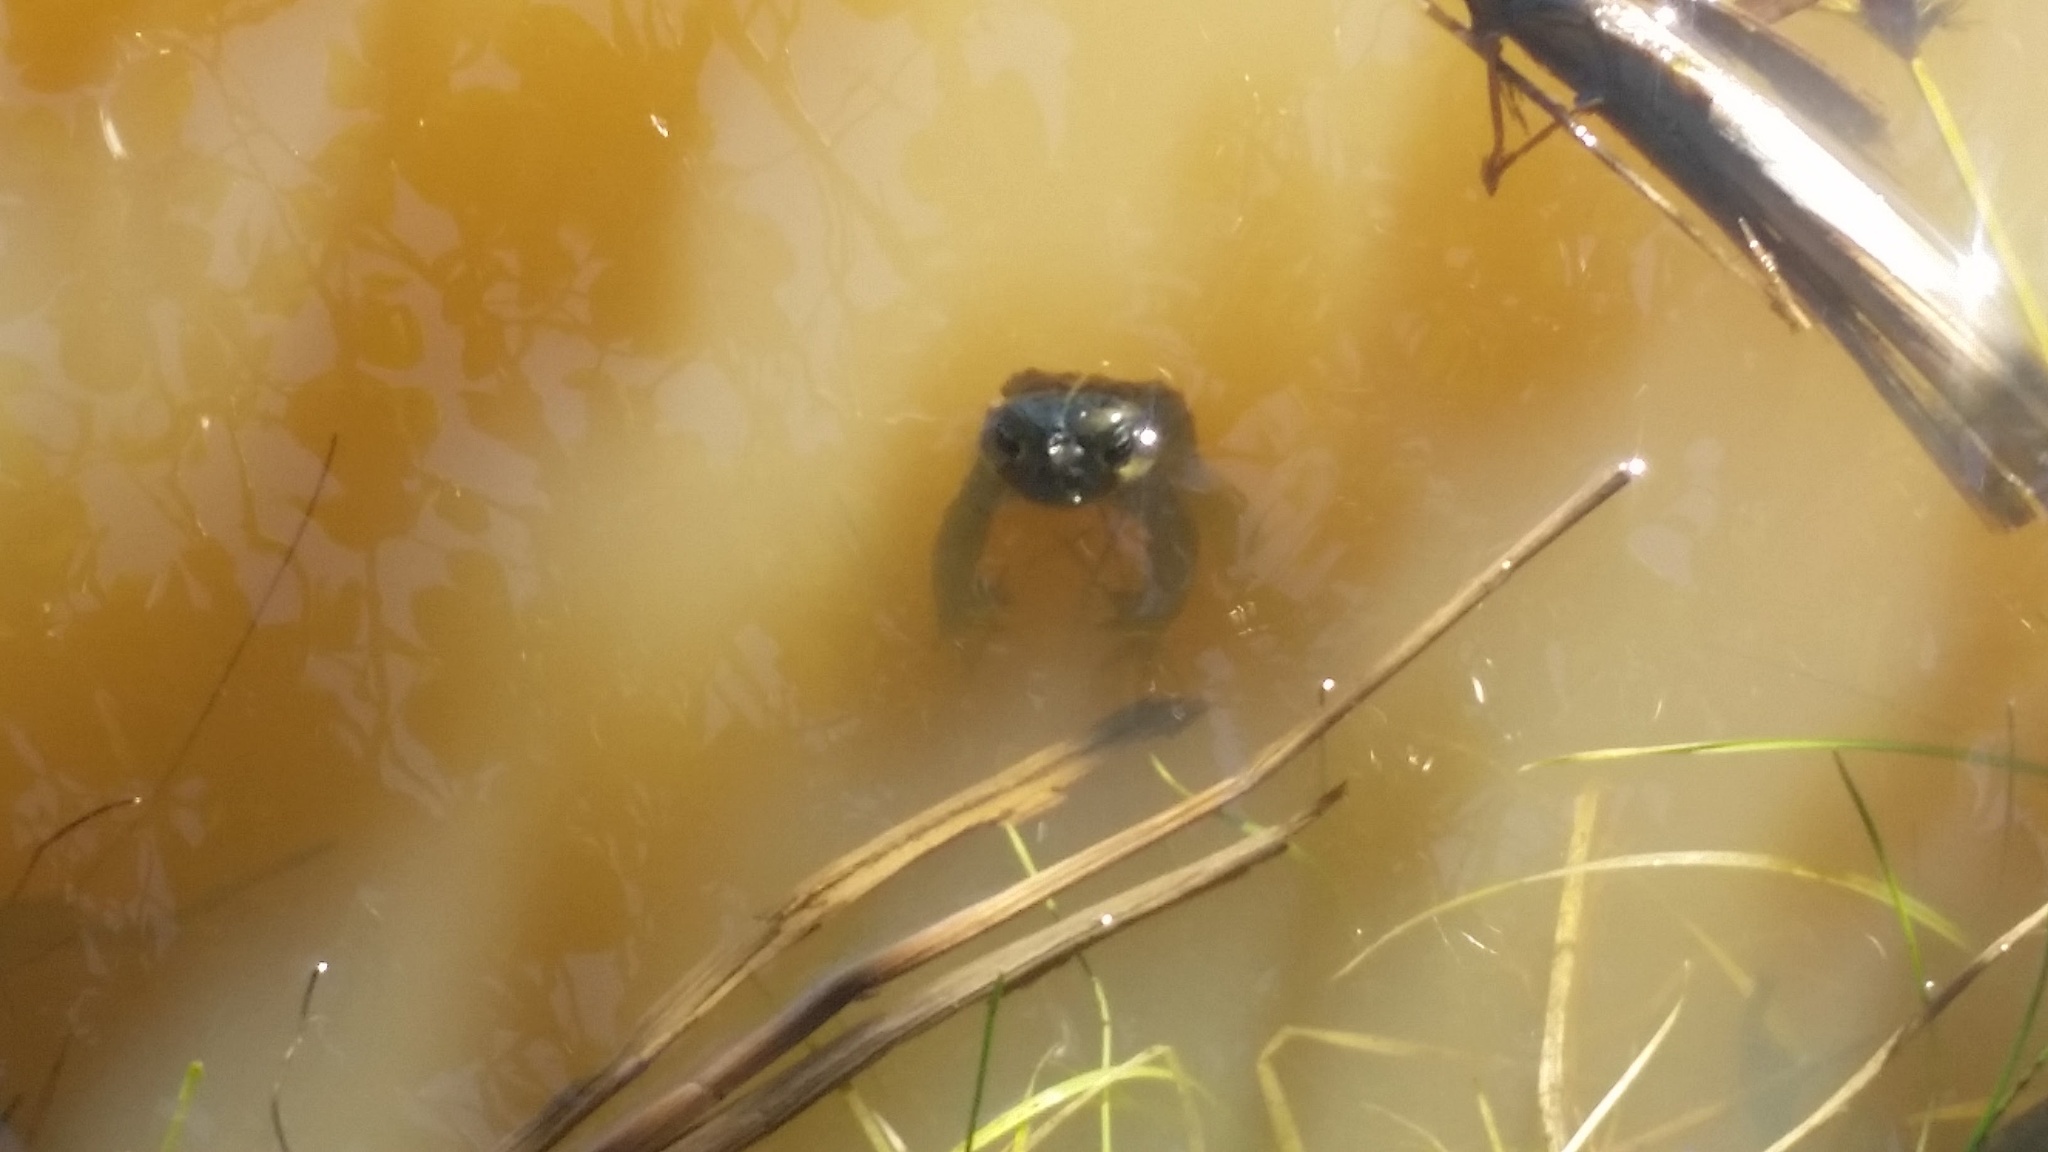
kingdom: Animalia
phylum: Chordata
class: Amphibia
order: Anura
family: Bufonidae
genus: Anaxyrus
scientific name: Anaxyrus boreas
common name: Western toad
